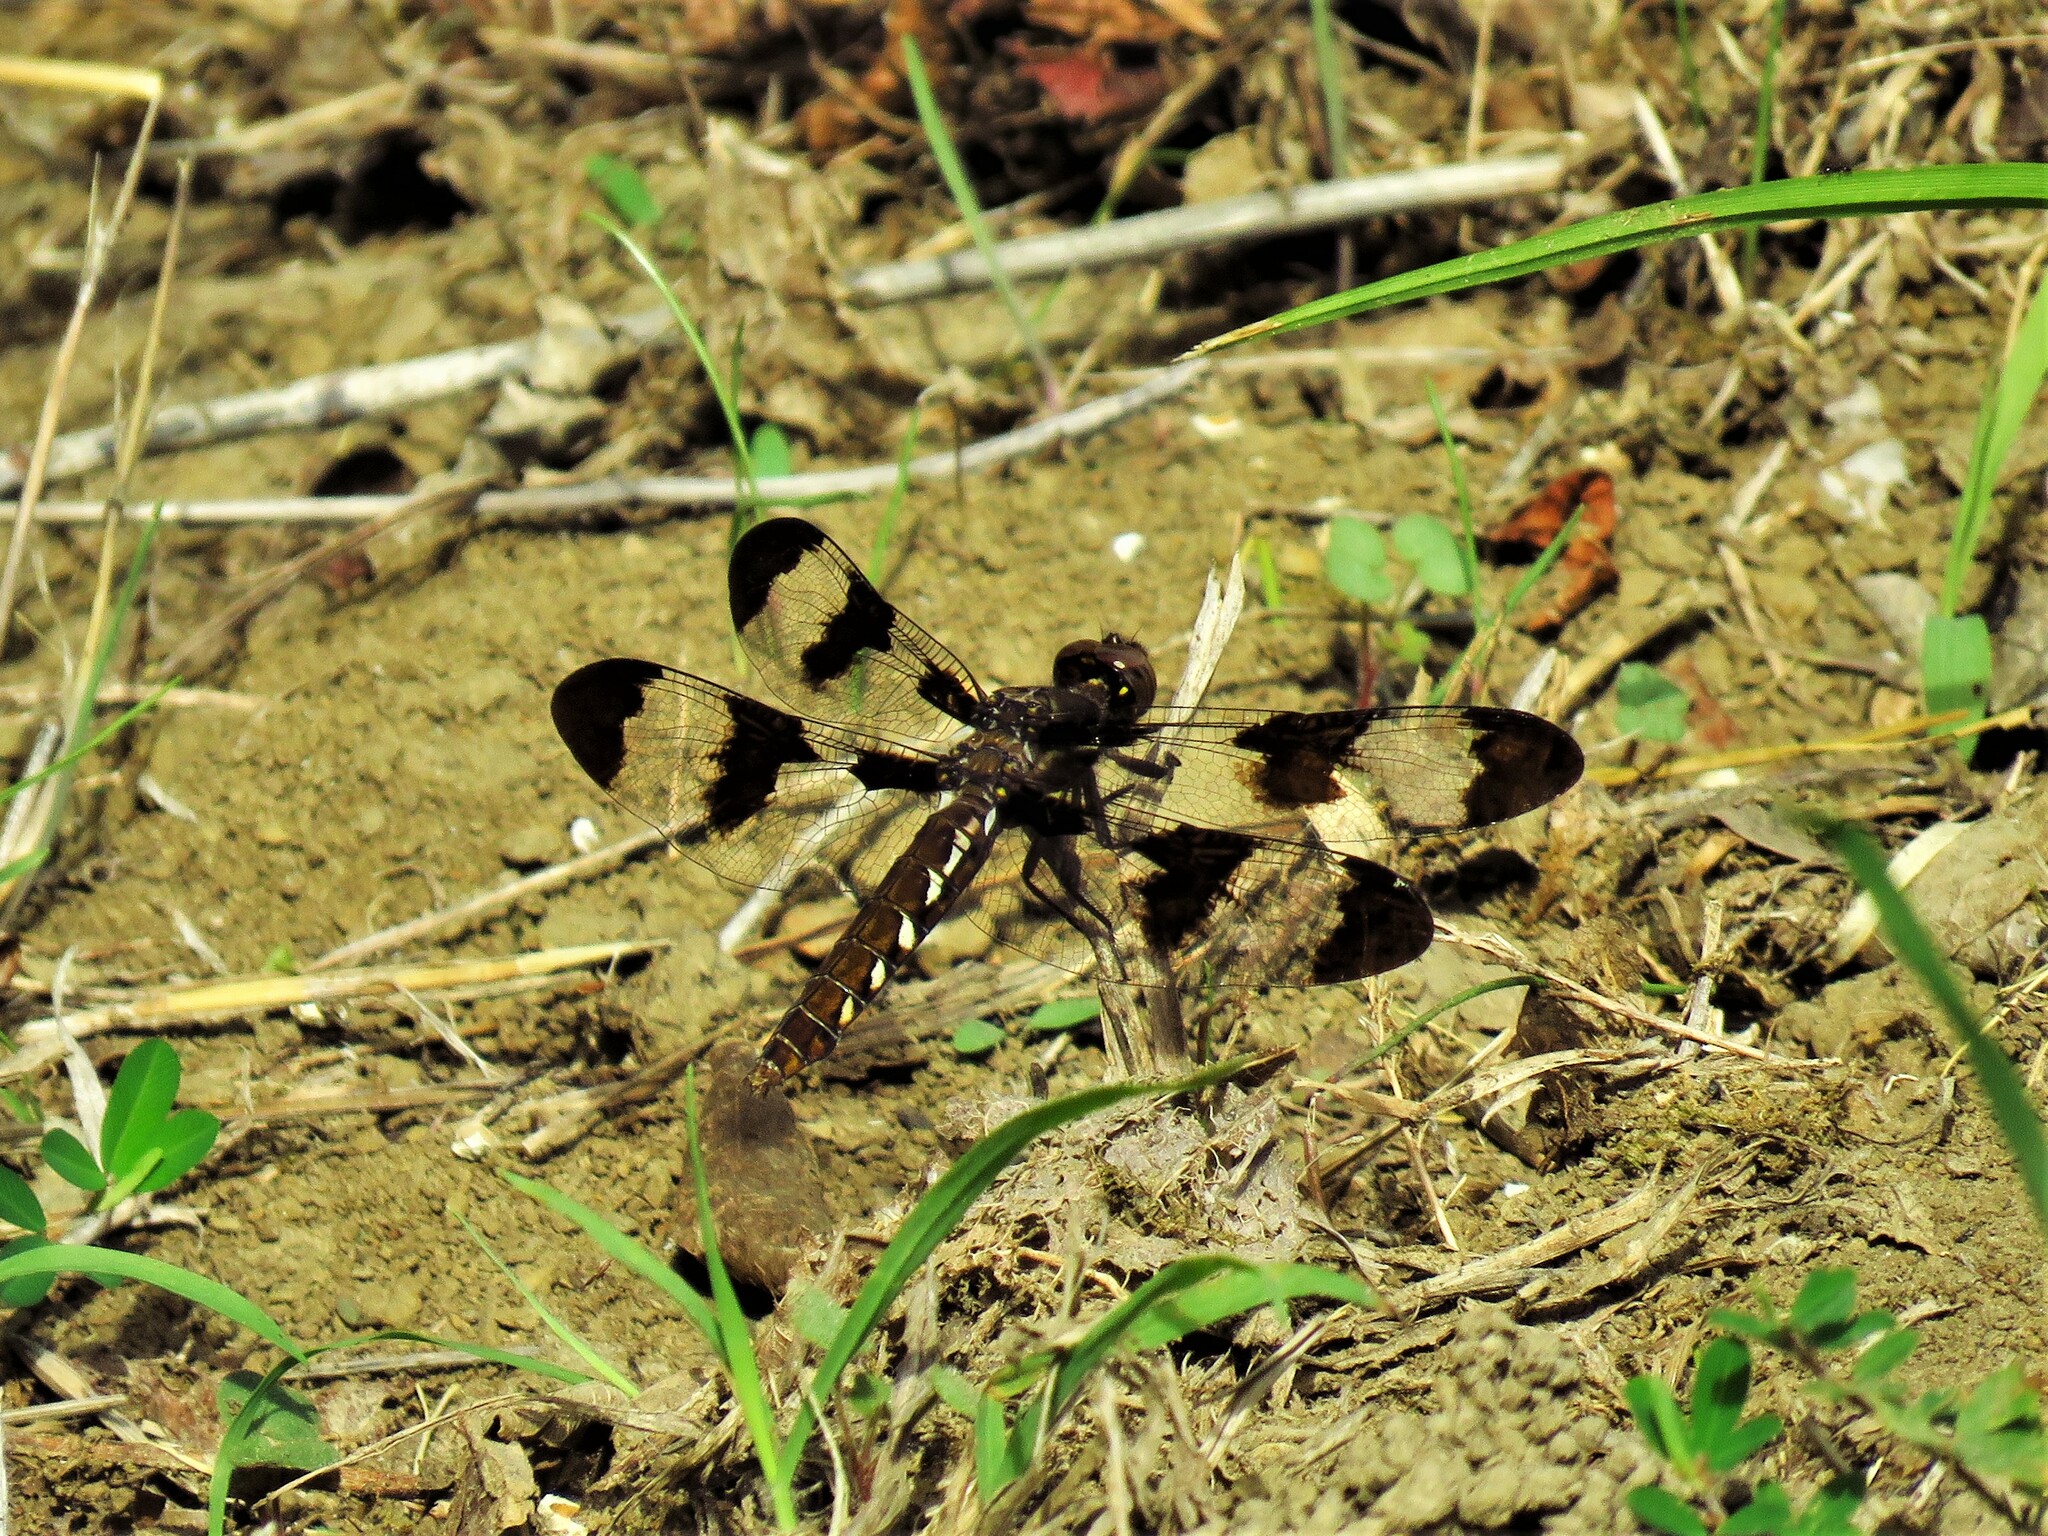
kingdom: Animalia
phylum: Arthropoda
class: Insecta
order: Odonata
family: Libellulidae
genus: Plathemis
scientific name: Plathemis lydia
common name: Common whitetail
